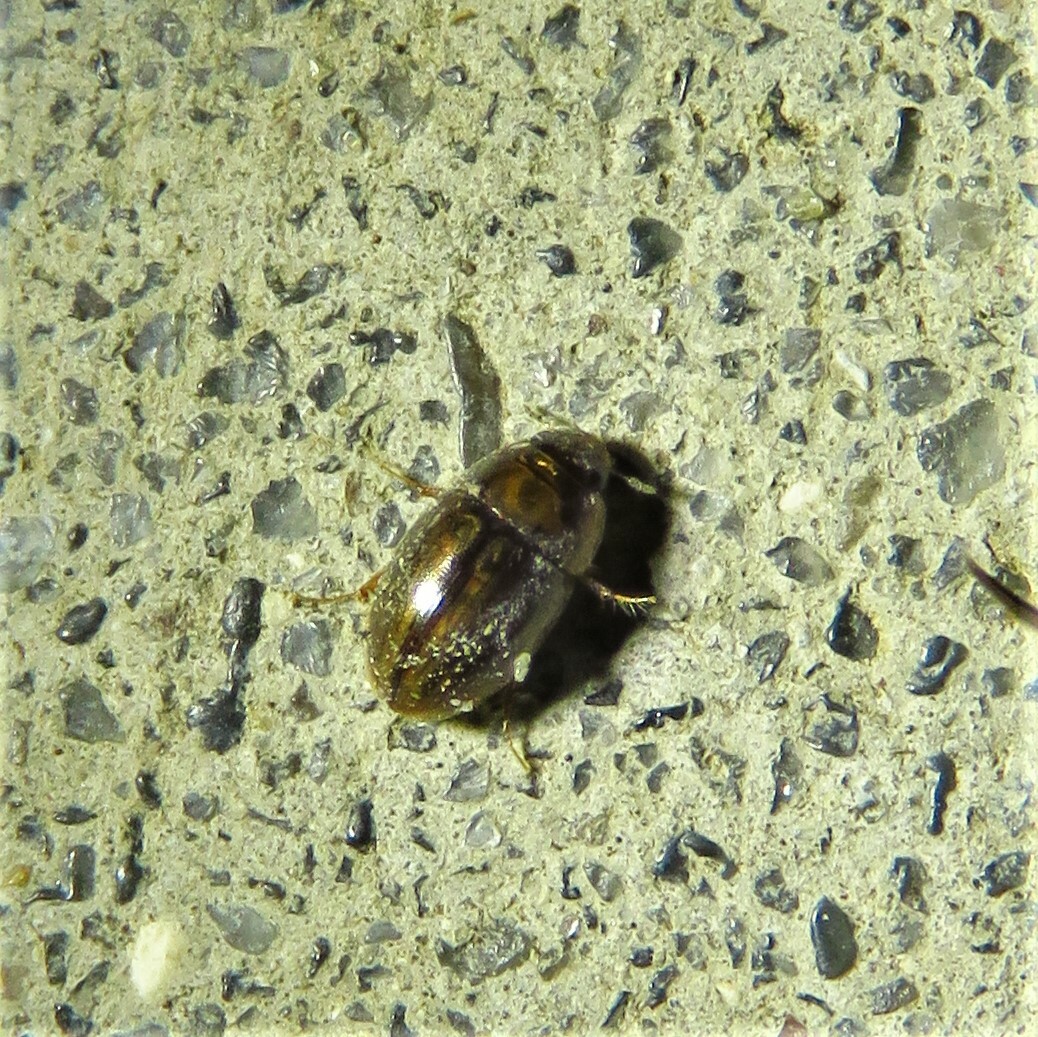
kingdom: Animalia
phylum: Arthropoda
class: Insecta
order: Coleoptera
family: Hydrophilidae
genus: Enochrus
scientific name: Enochrus
